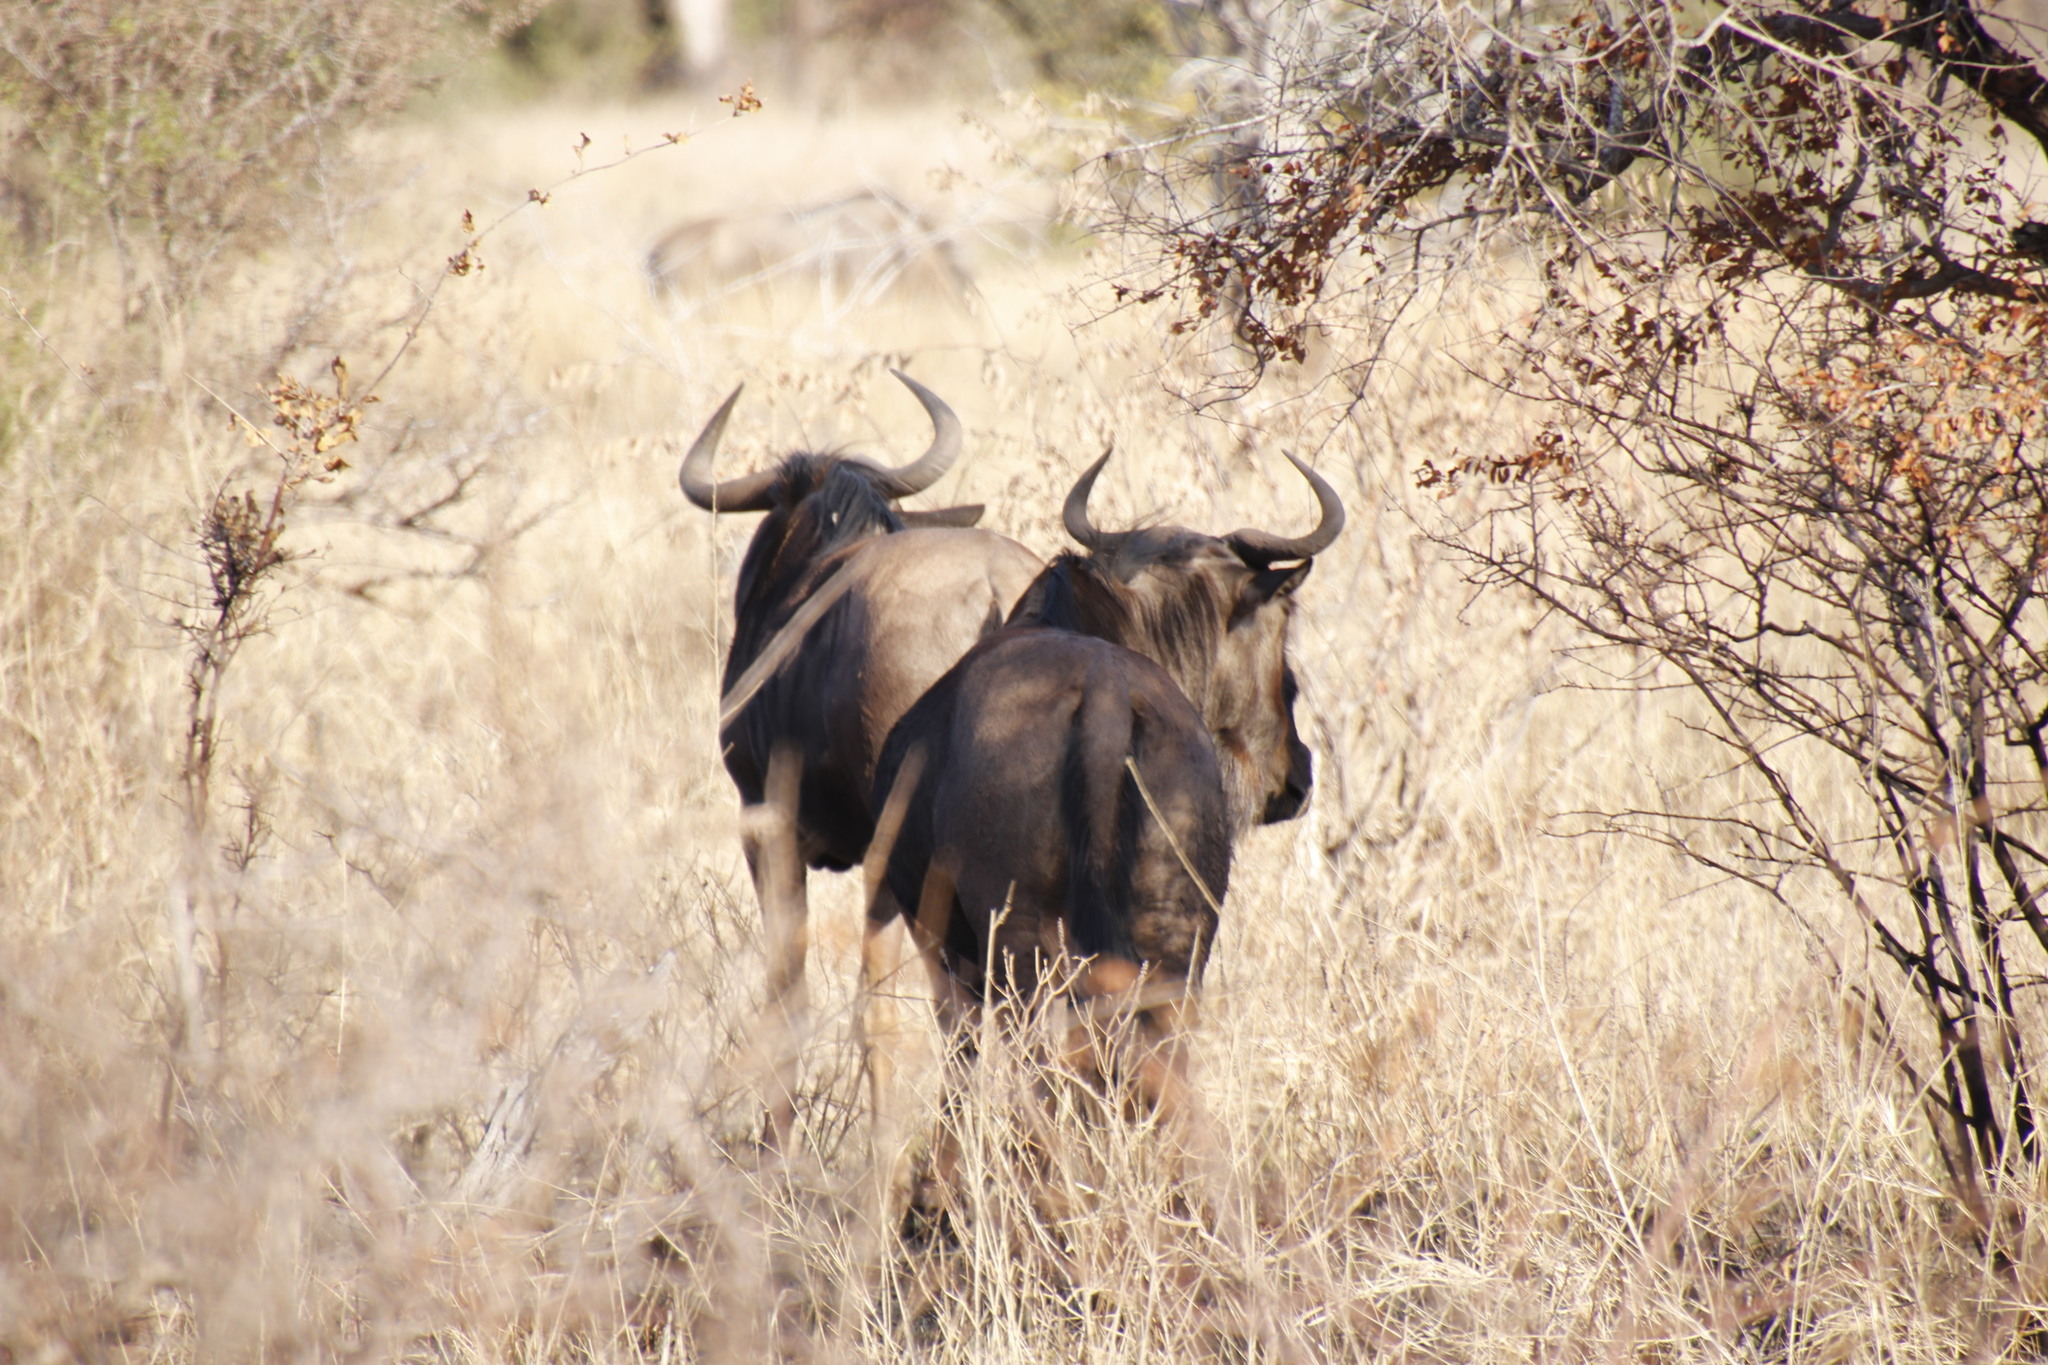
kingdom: Animalia
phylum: Chordata
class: Mammalia
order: Artiodactyla
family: Bovidae
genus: Connochaetes
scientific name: Connochaetes taurinus
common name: Blue wildebeest
